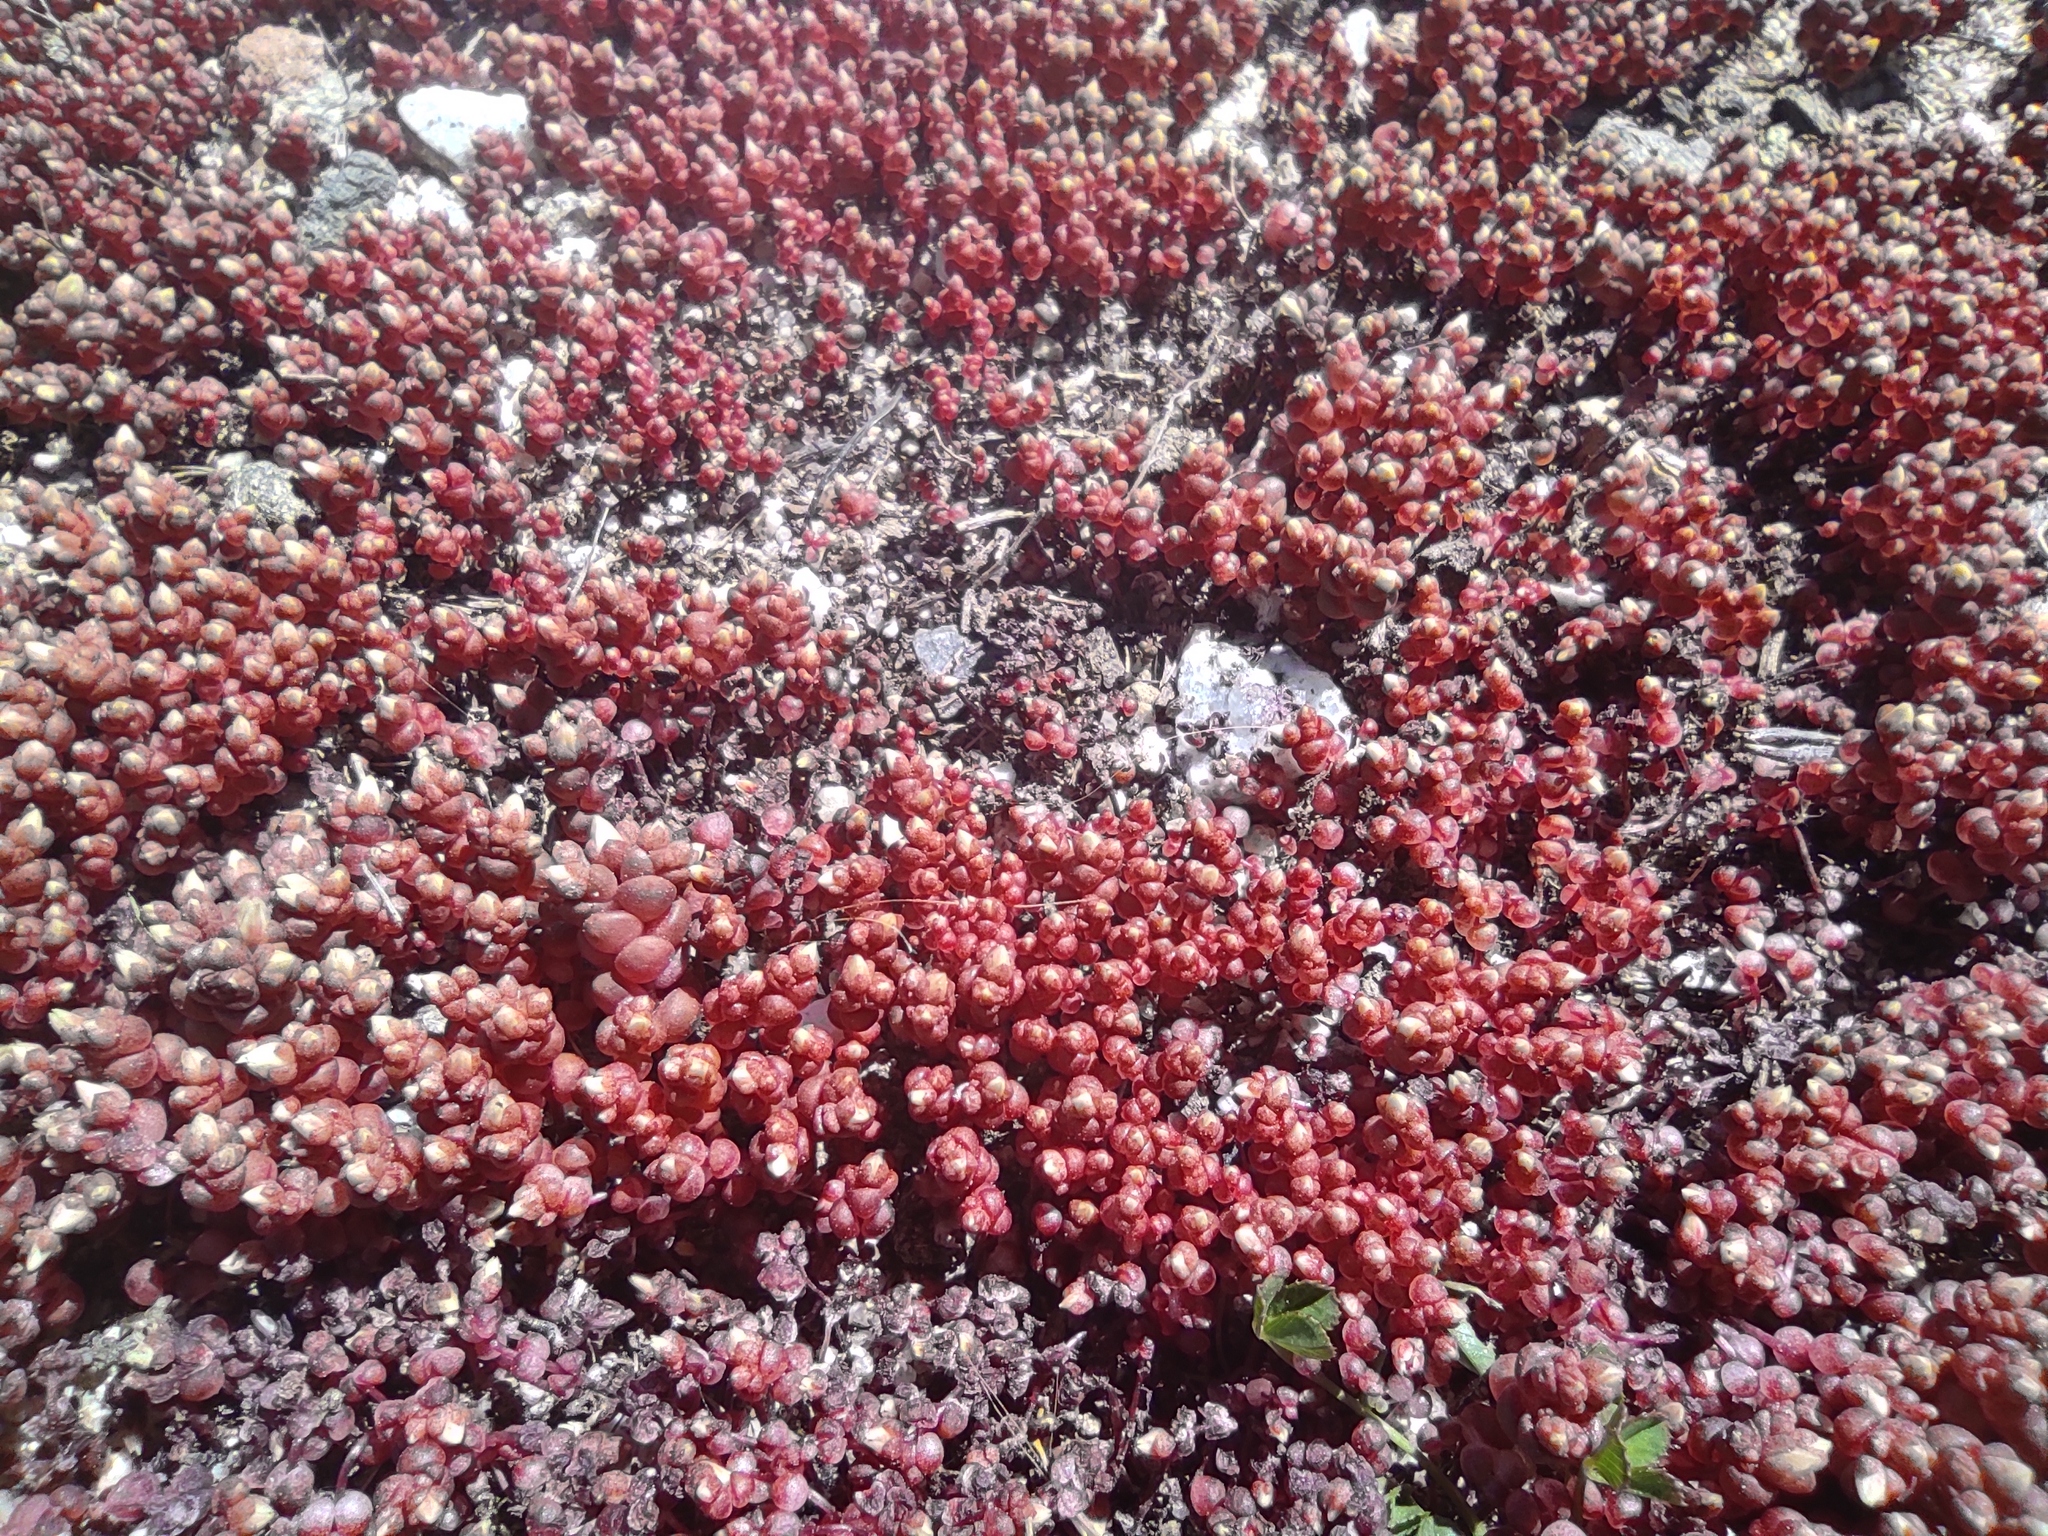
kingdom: Plantae
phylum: Tracheophyta
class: Magnoliopsida
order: Saxifragales
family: Crassulaceae
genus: Sedum
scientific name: Sedum andegavense
